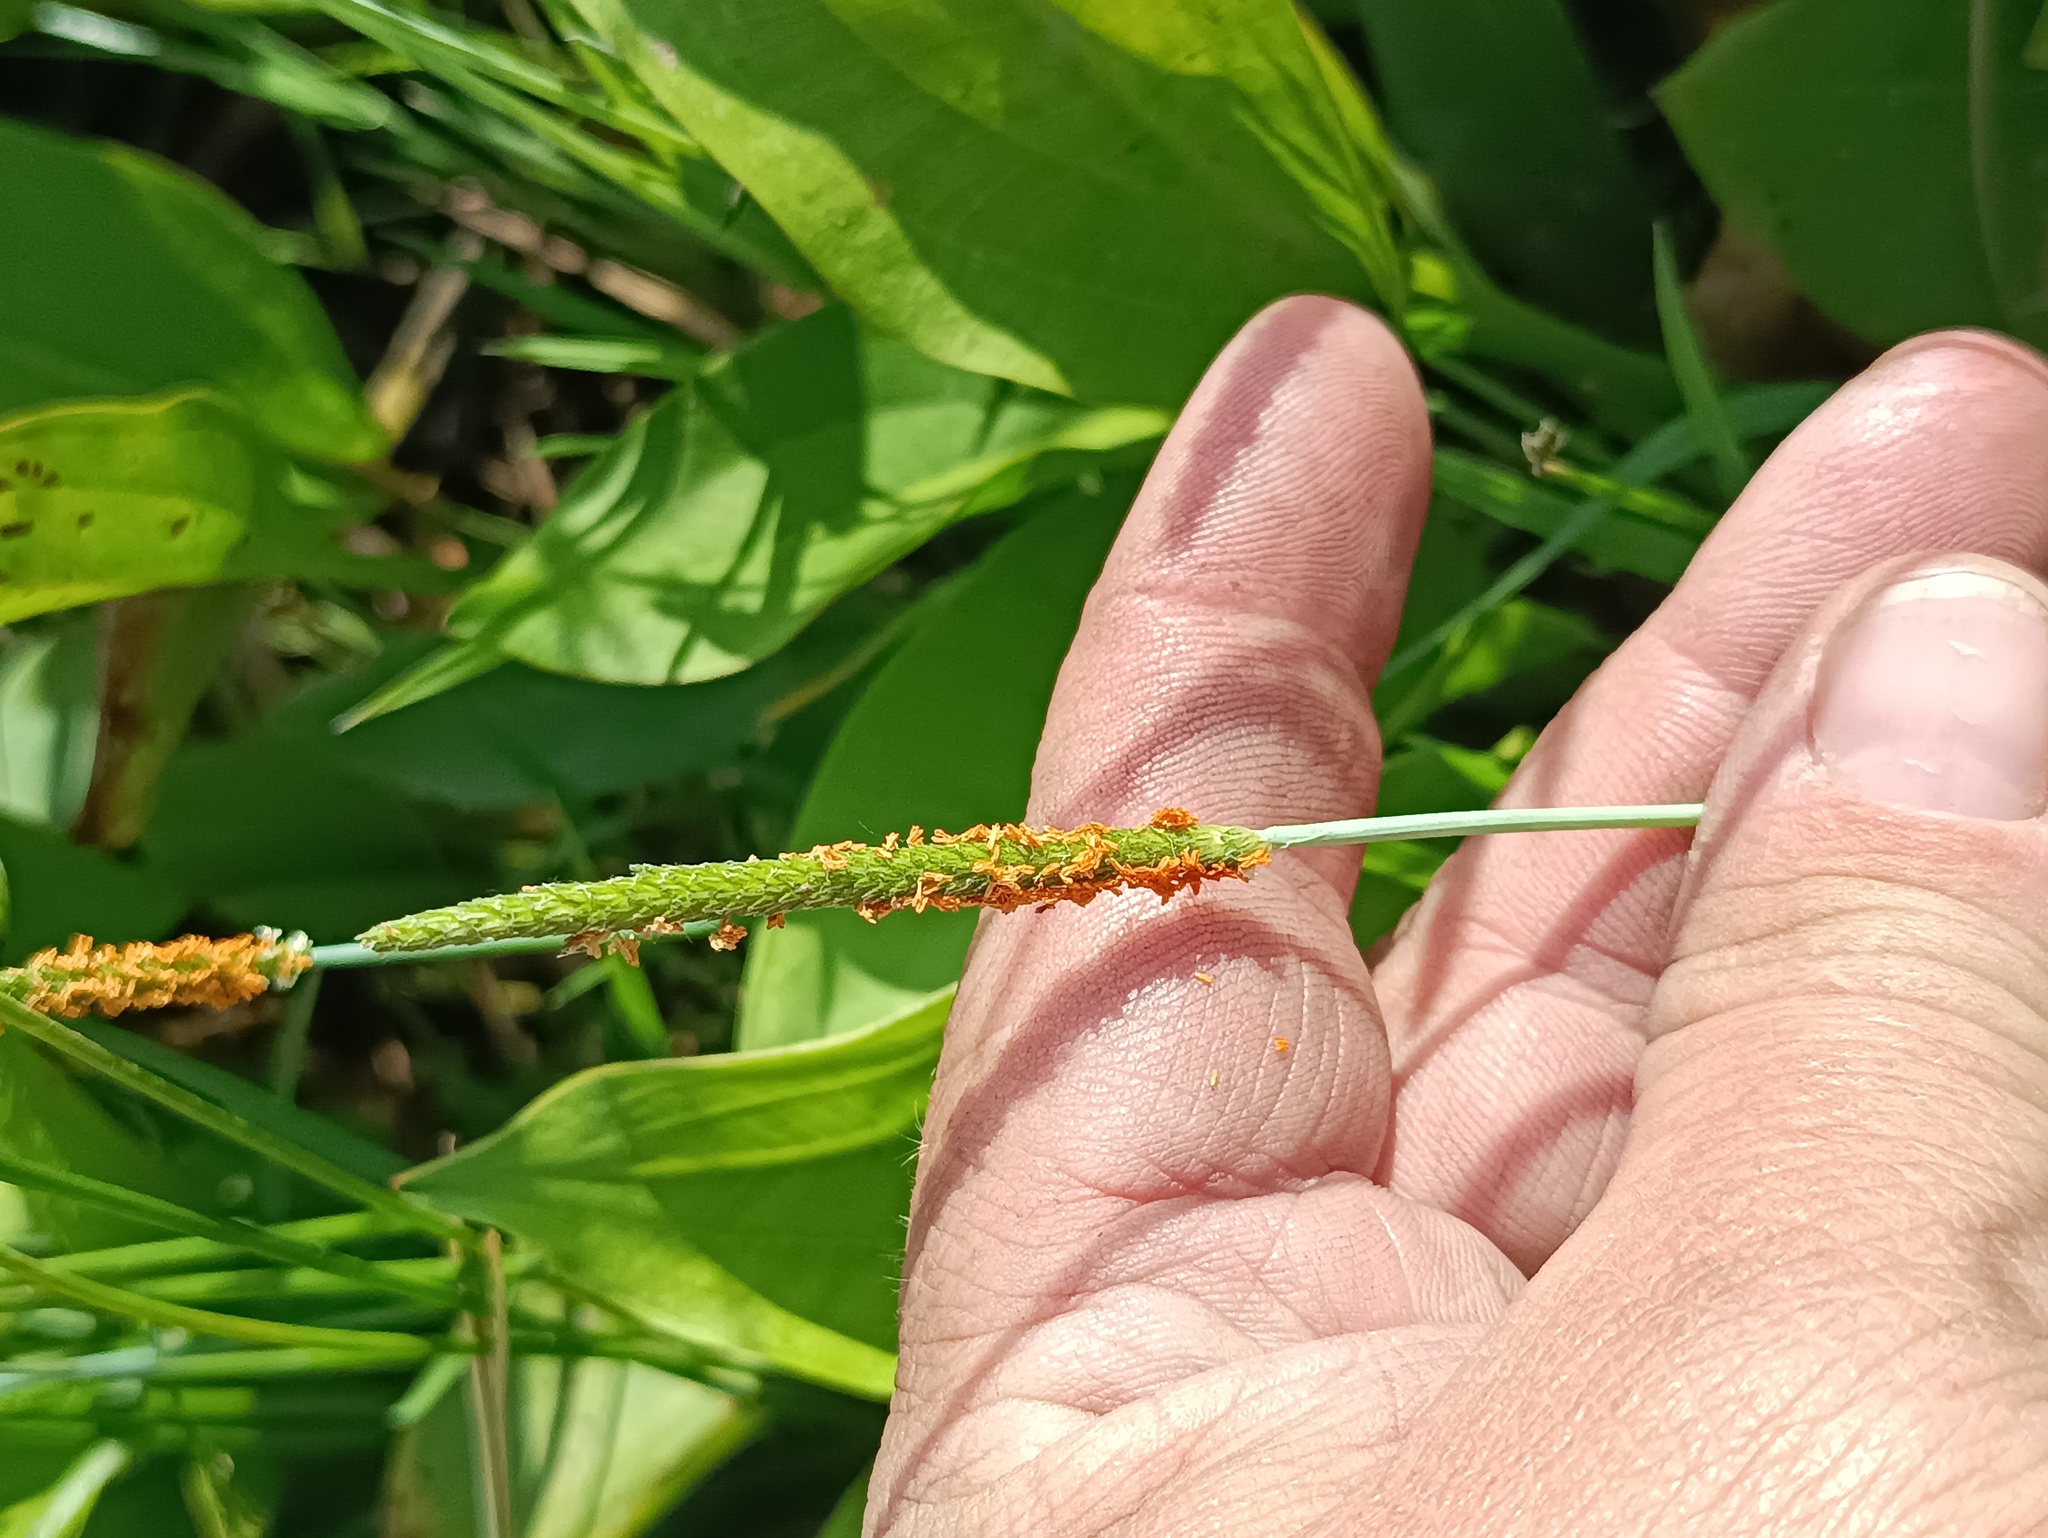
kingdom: Plantae
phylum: Tracheophyta
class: Liliopsida
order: Poales
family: Poaceae
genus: Alopecurus
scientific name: Alopecurus aequalis
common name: Orange foxtail
